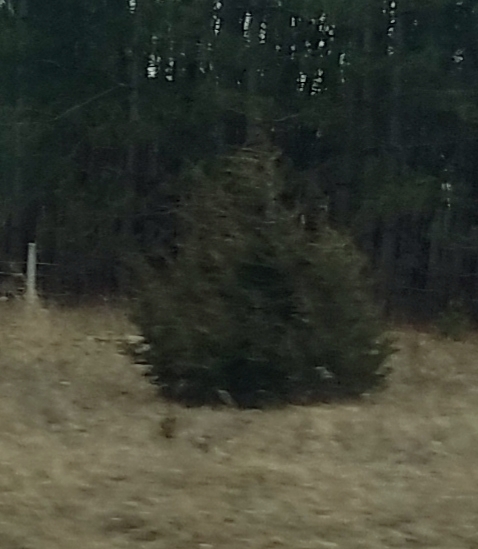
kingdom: Plantae
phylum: Tracheophyta
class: Pinopsida
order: Pinales
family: Cupressaceae
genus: Juniperus
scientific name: Juniperus virginiana
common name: Red juniper
